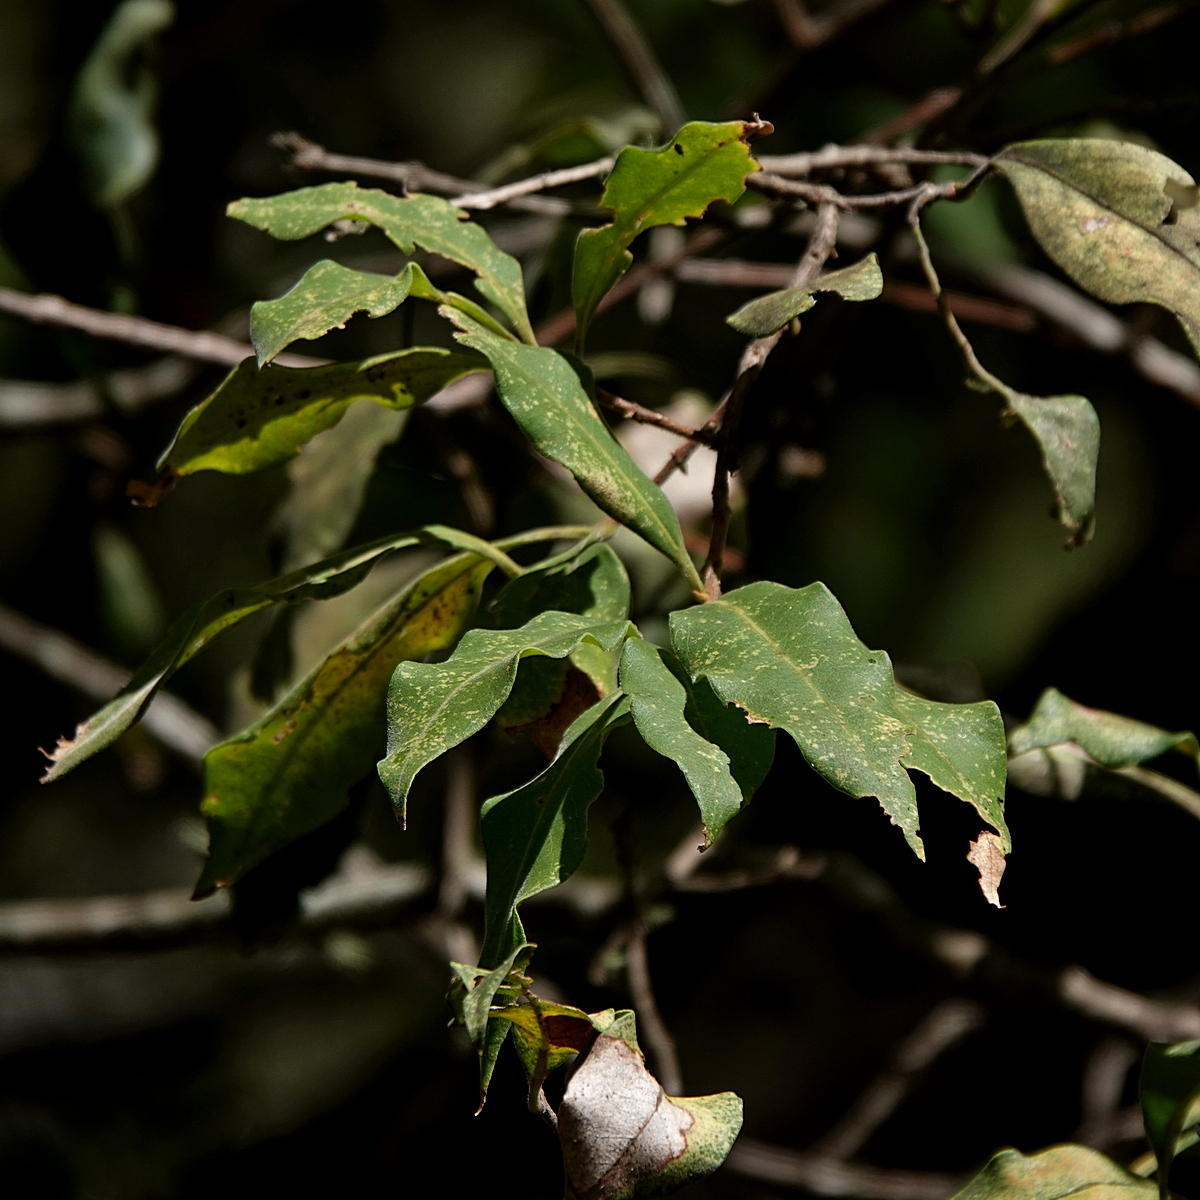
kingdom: Plantae
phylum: Tracheophyta
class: Magnoliopsida
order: Lamiales
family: Oleaceae
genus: Notelaea
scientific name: Notelaea longifolia
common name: Large mock olive
